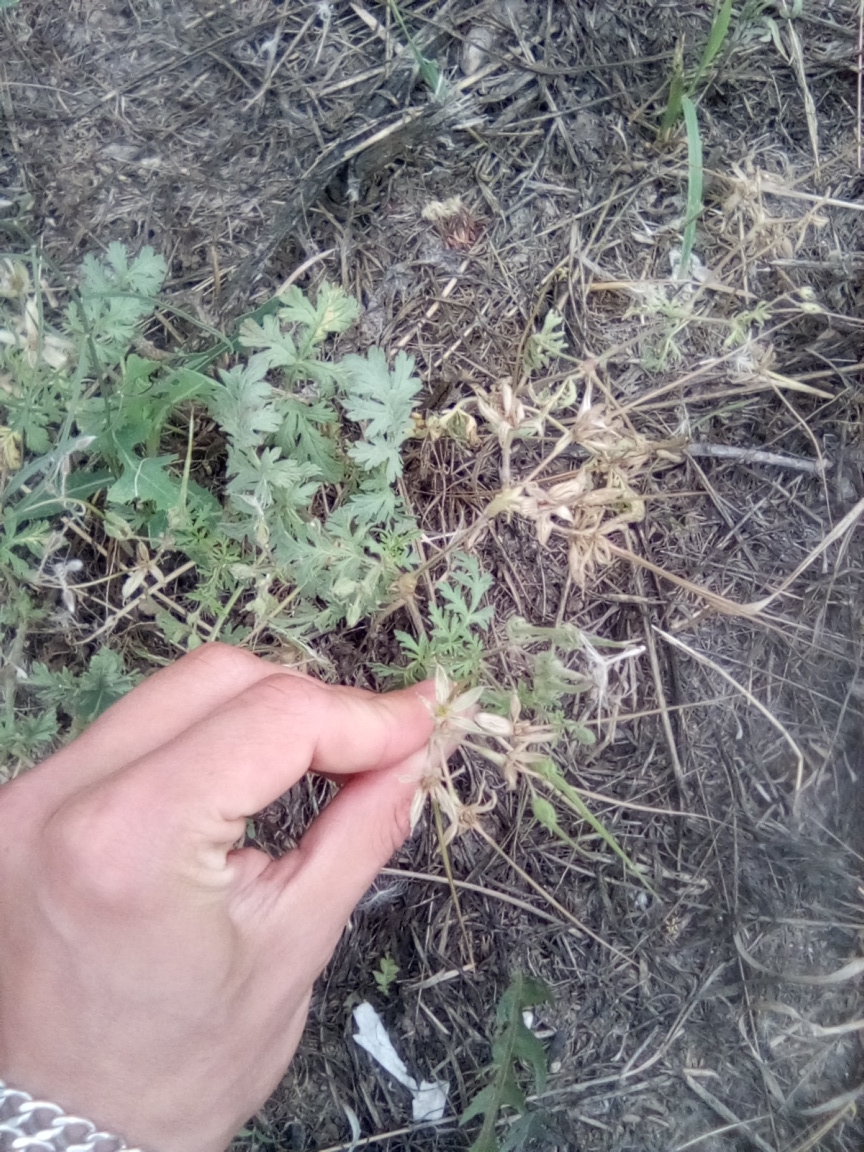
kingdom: Plantae
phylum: Tracheophyta
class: Magnoliopsida
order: Geraniales
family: Geraniaceae
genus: Erodium
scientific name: Erodium ciconium
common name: Common stork's bill
